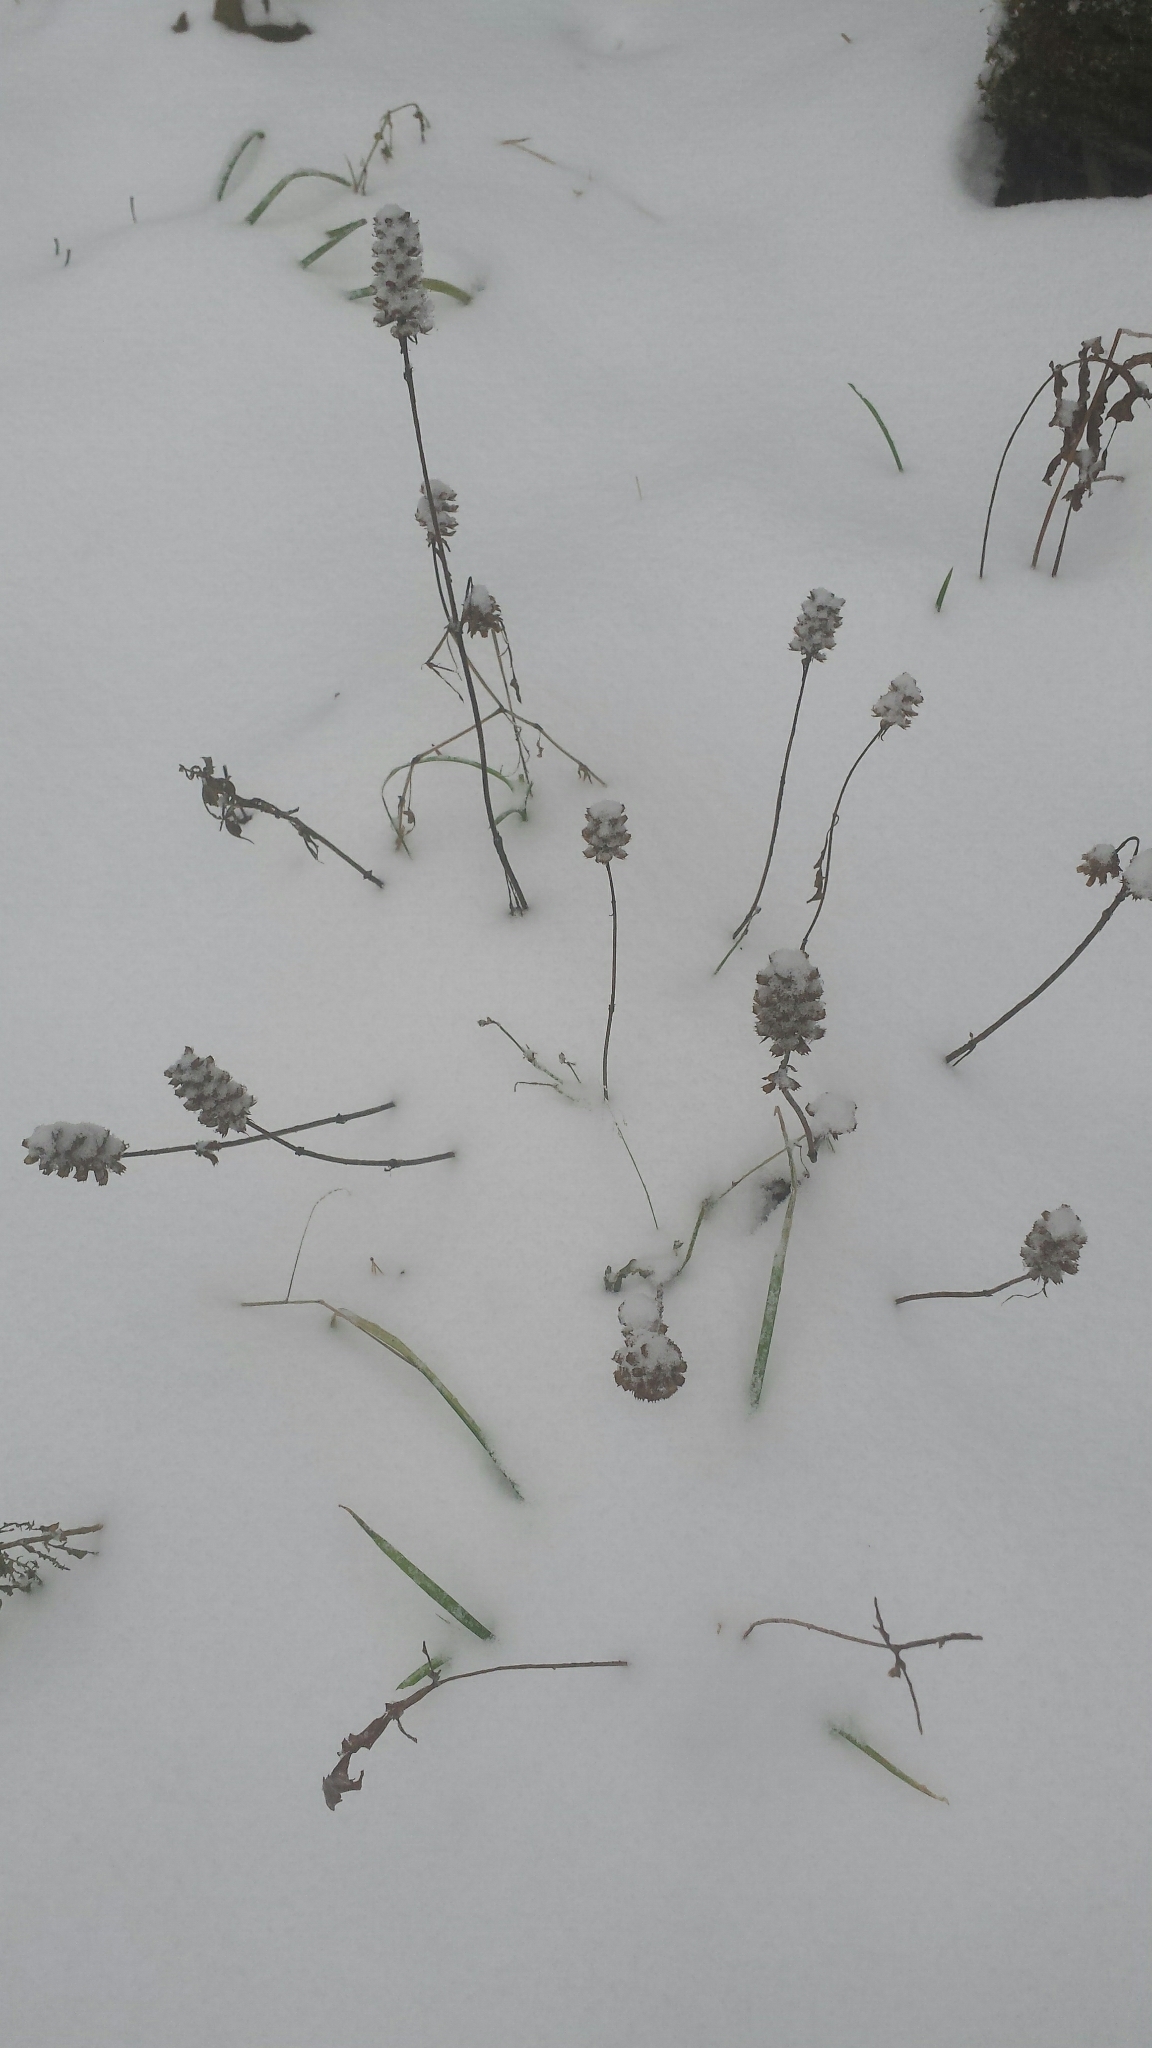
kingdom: Plantae
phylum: Tracheophyta
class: Magnoliopsida
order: Lamiales
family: Lamiaceae
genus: Prunella
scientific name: Prunella vulgaris
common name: Heal-all
